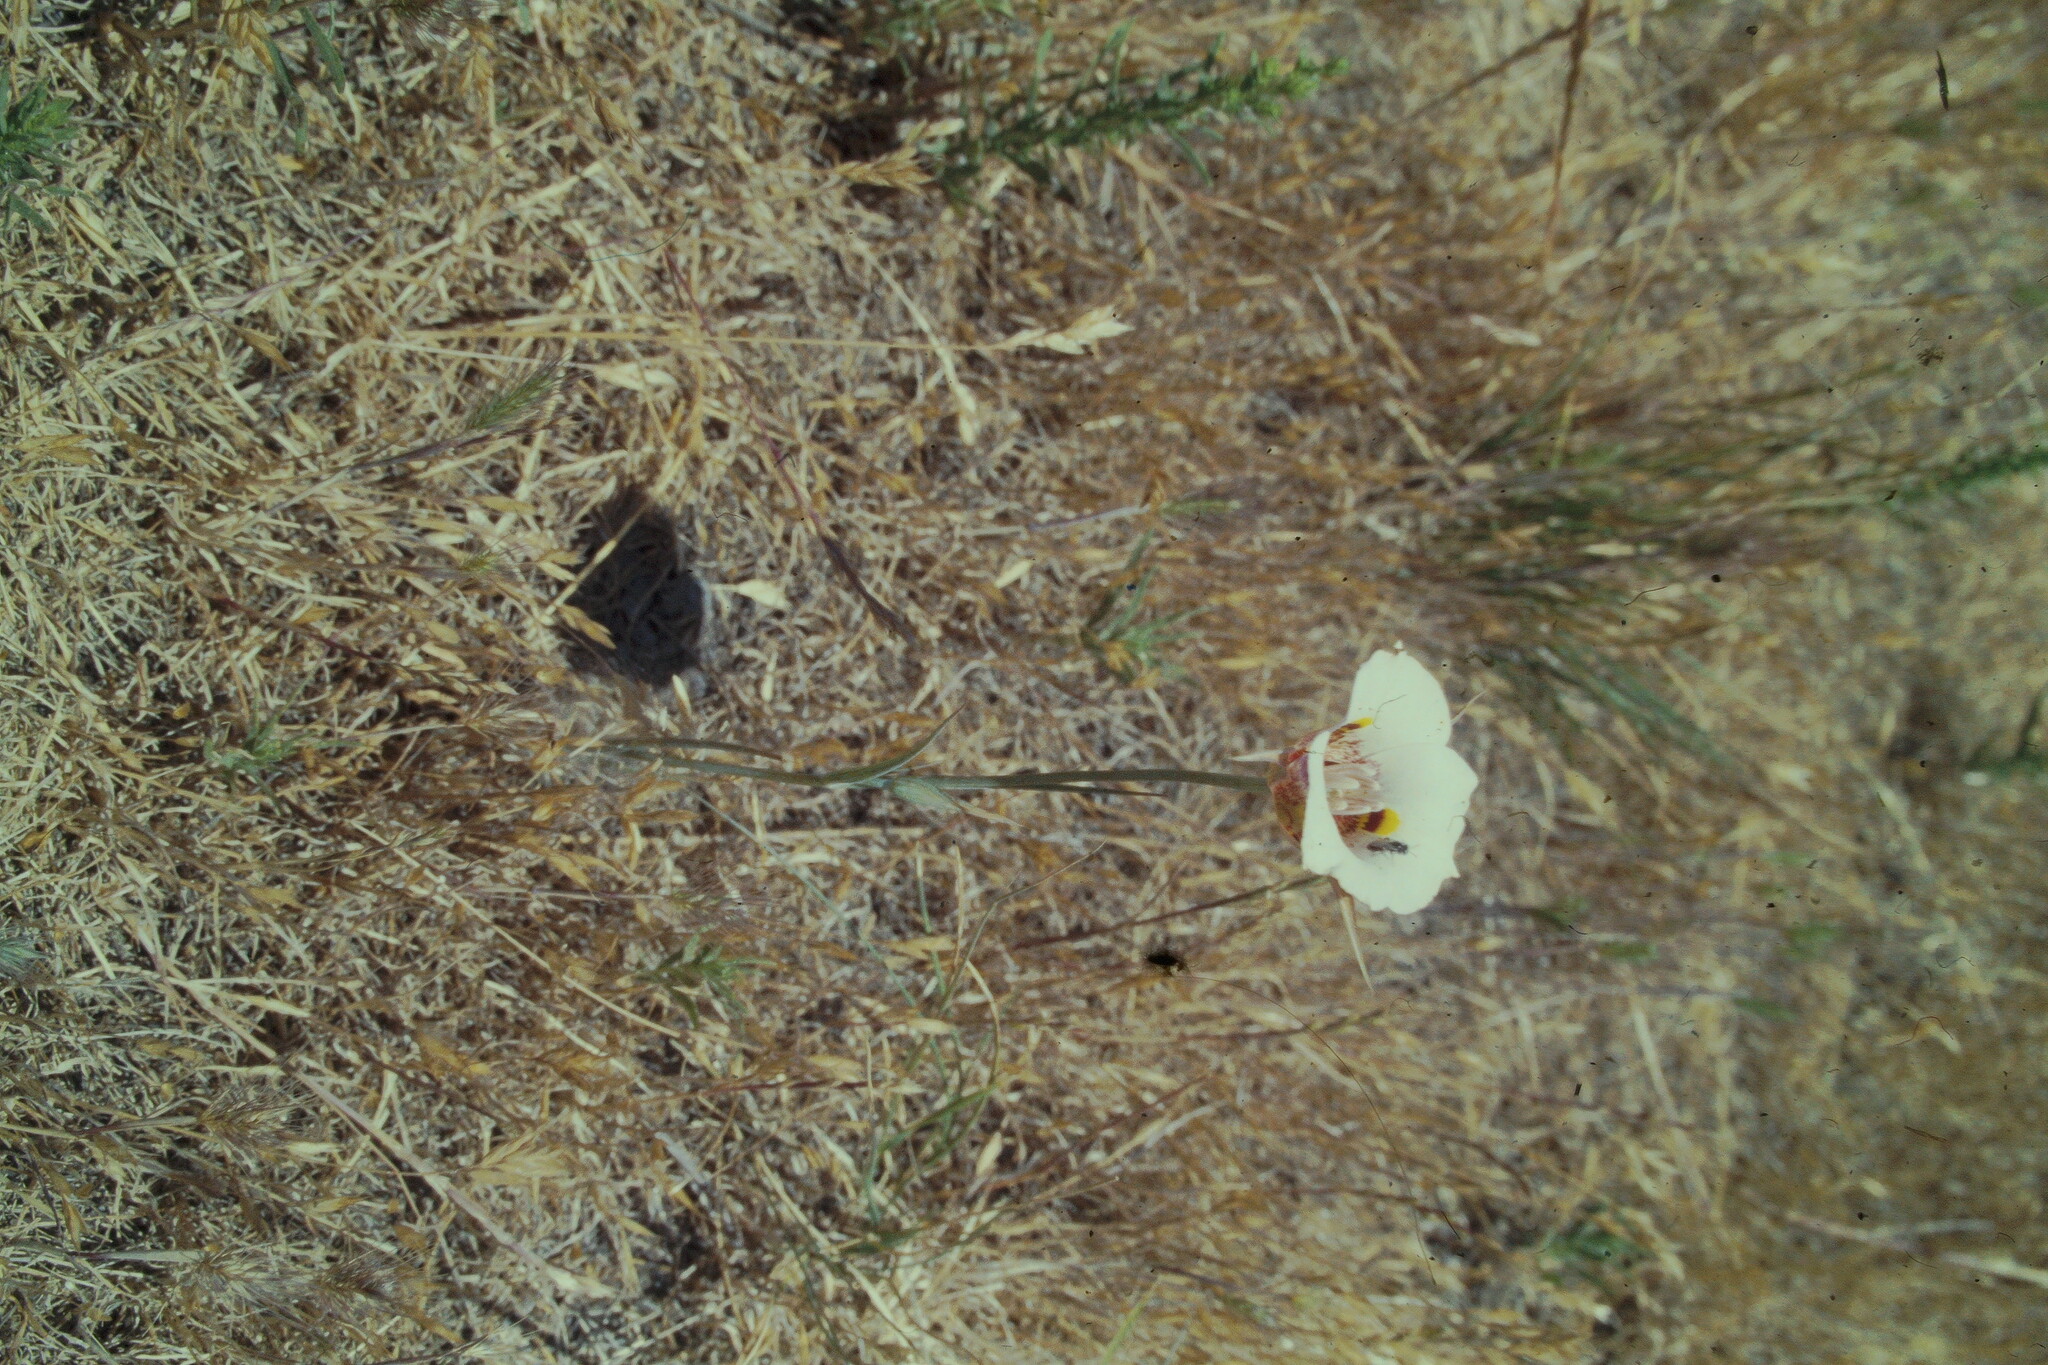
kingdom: Plantae
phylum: Tracheophyta
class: Liliopsida
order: Liliales
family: Liliaceae
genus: Calochortus
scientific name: Calochortus argillosus
